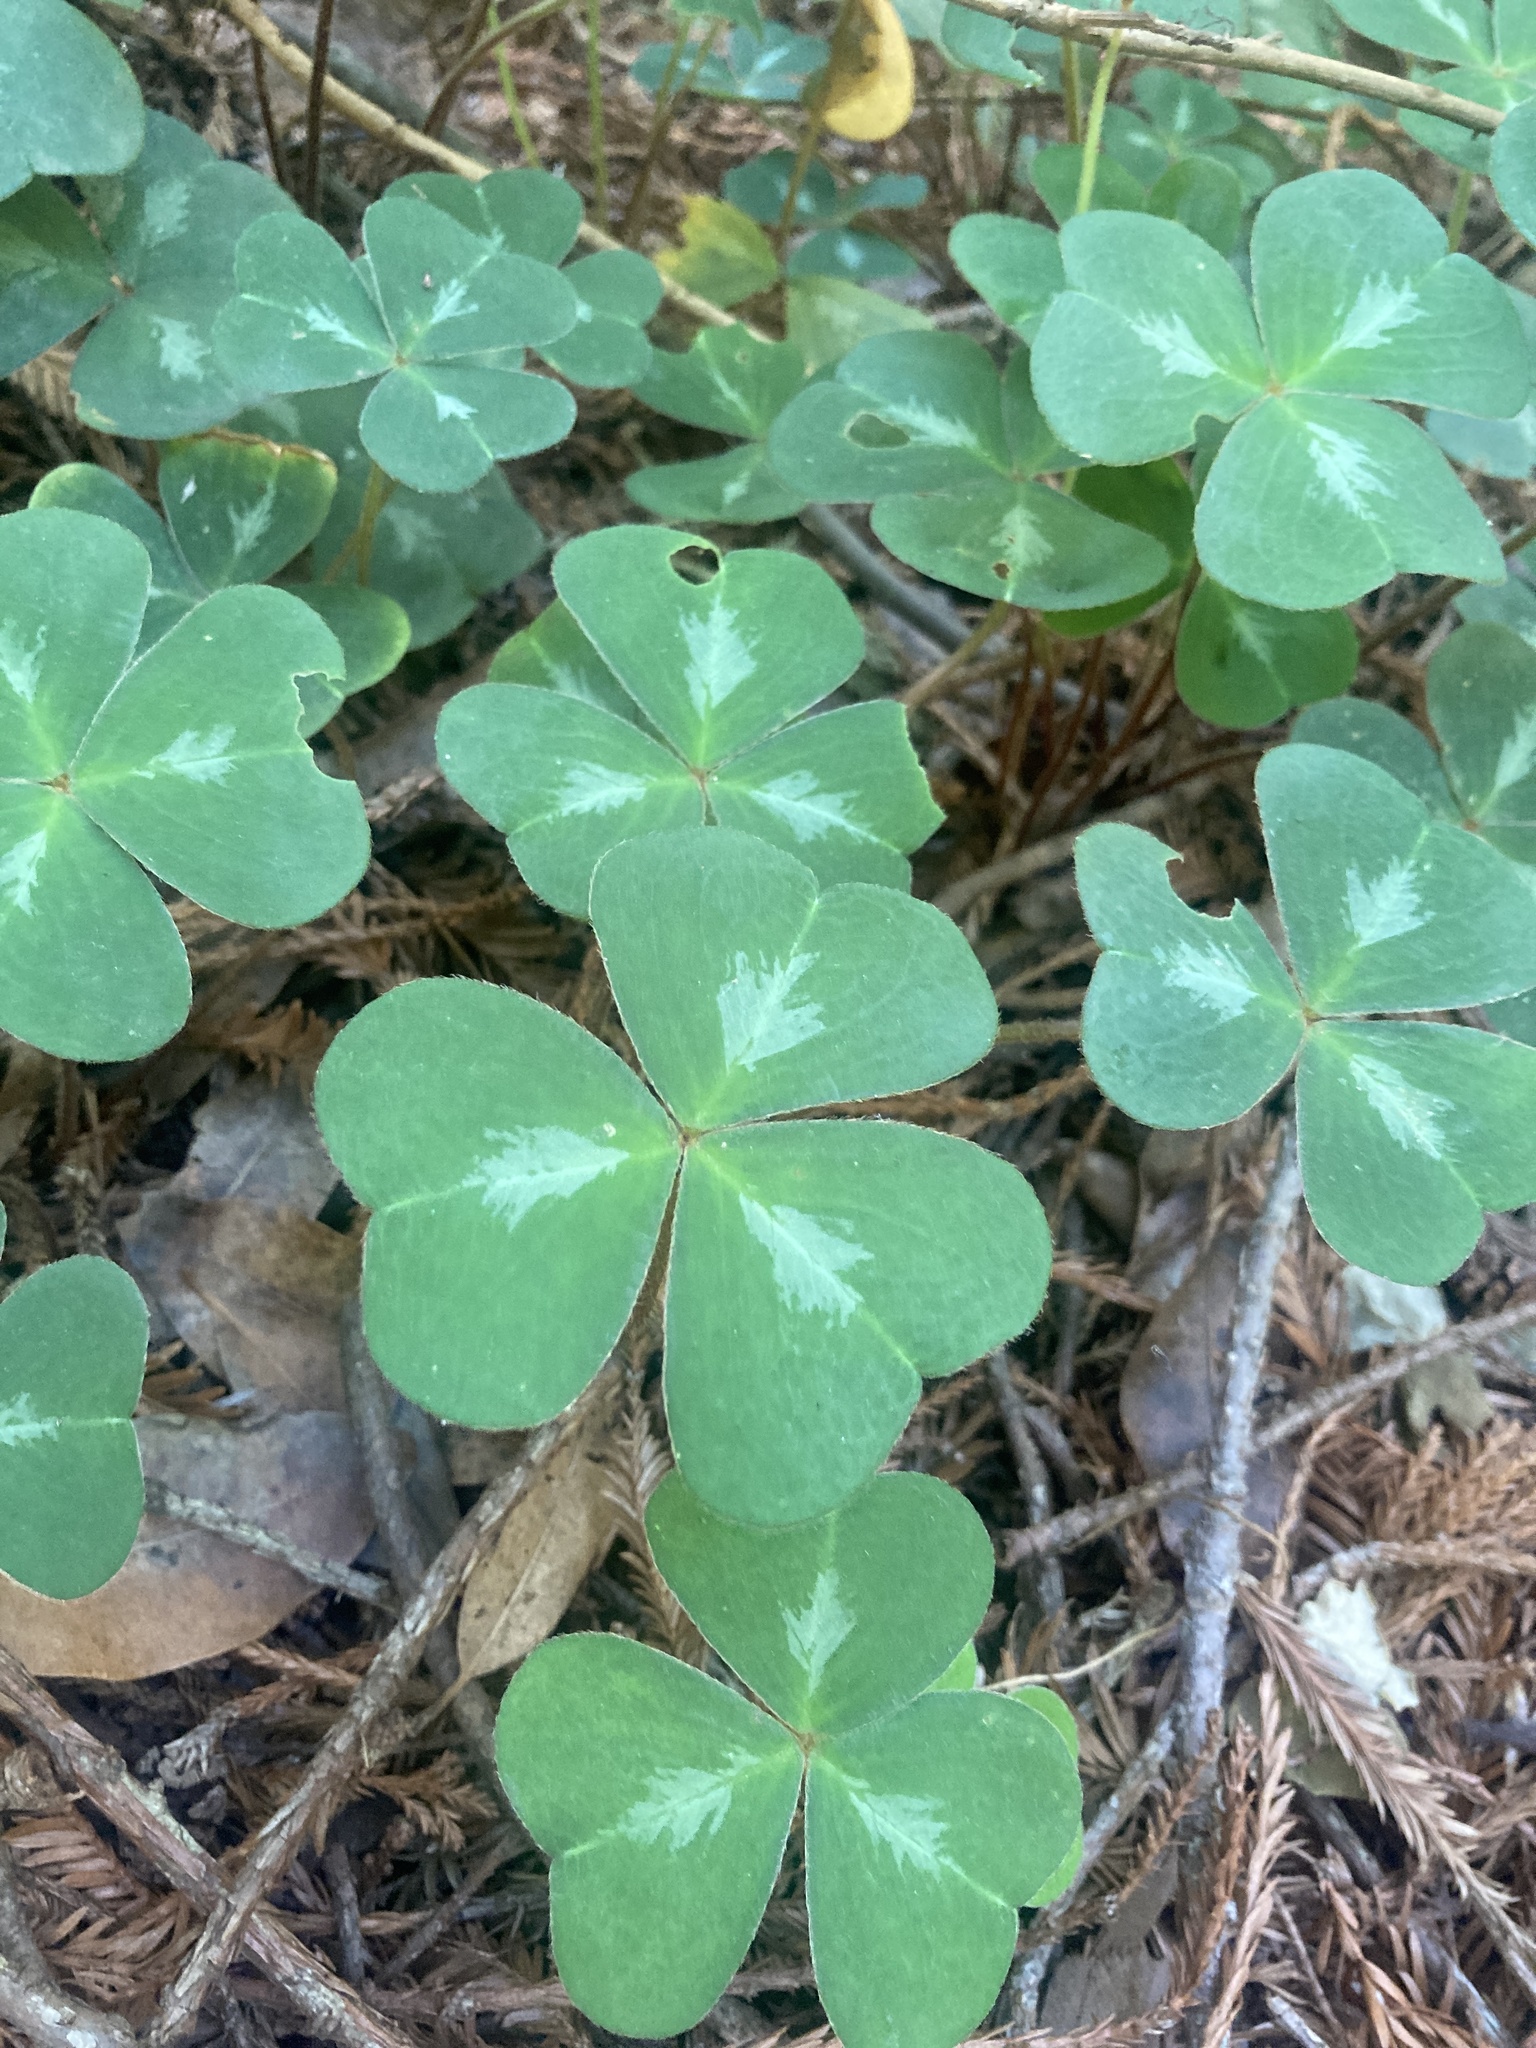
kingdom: Plantae
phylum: Tracheophyta
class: Magnoliopsida
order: Oxalidales
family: Oxalidaceae
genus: Oxalis
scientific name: Oxalis oregana
